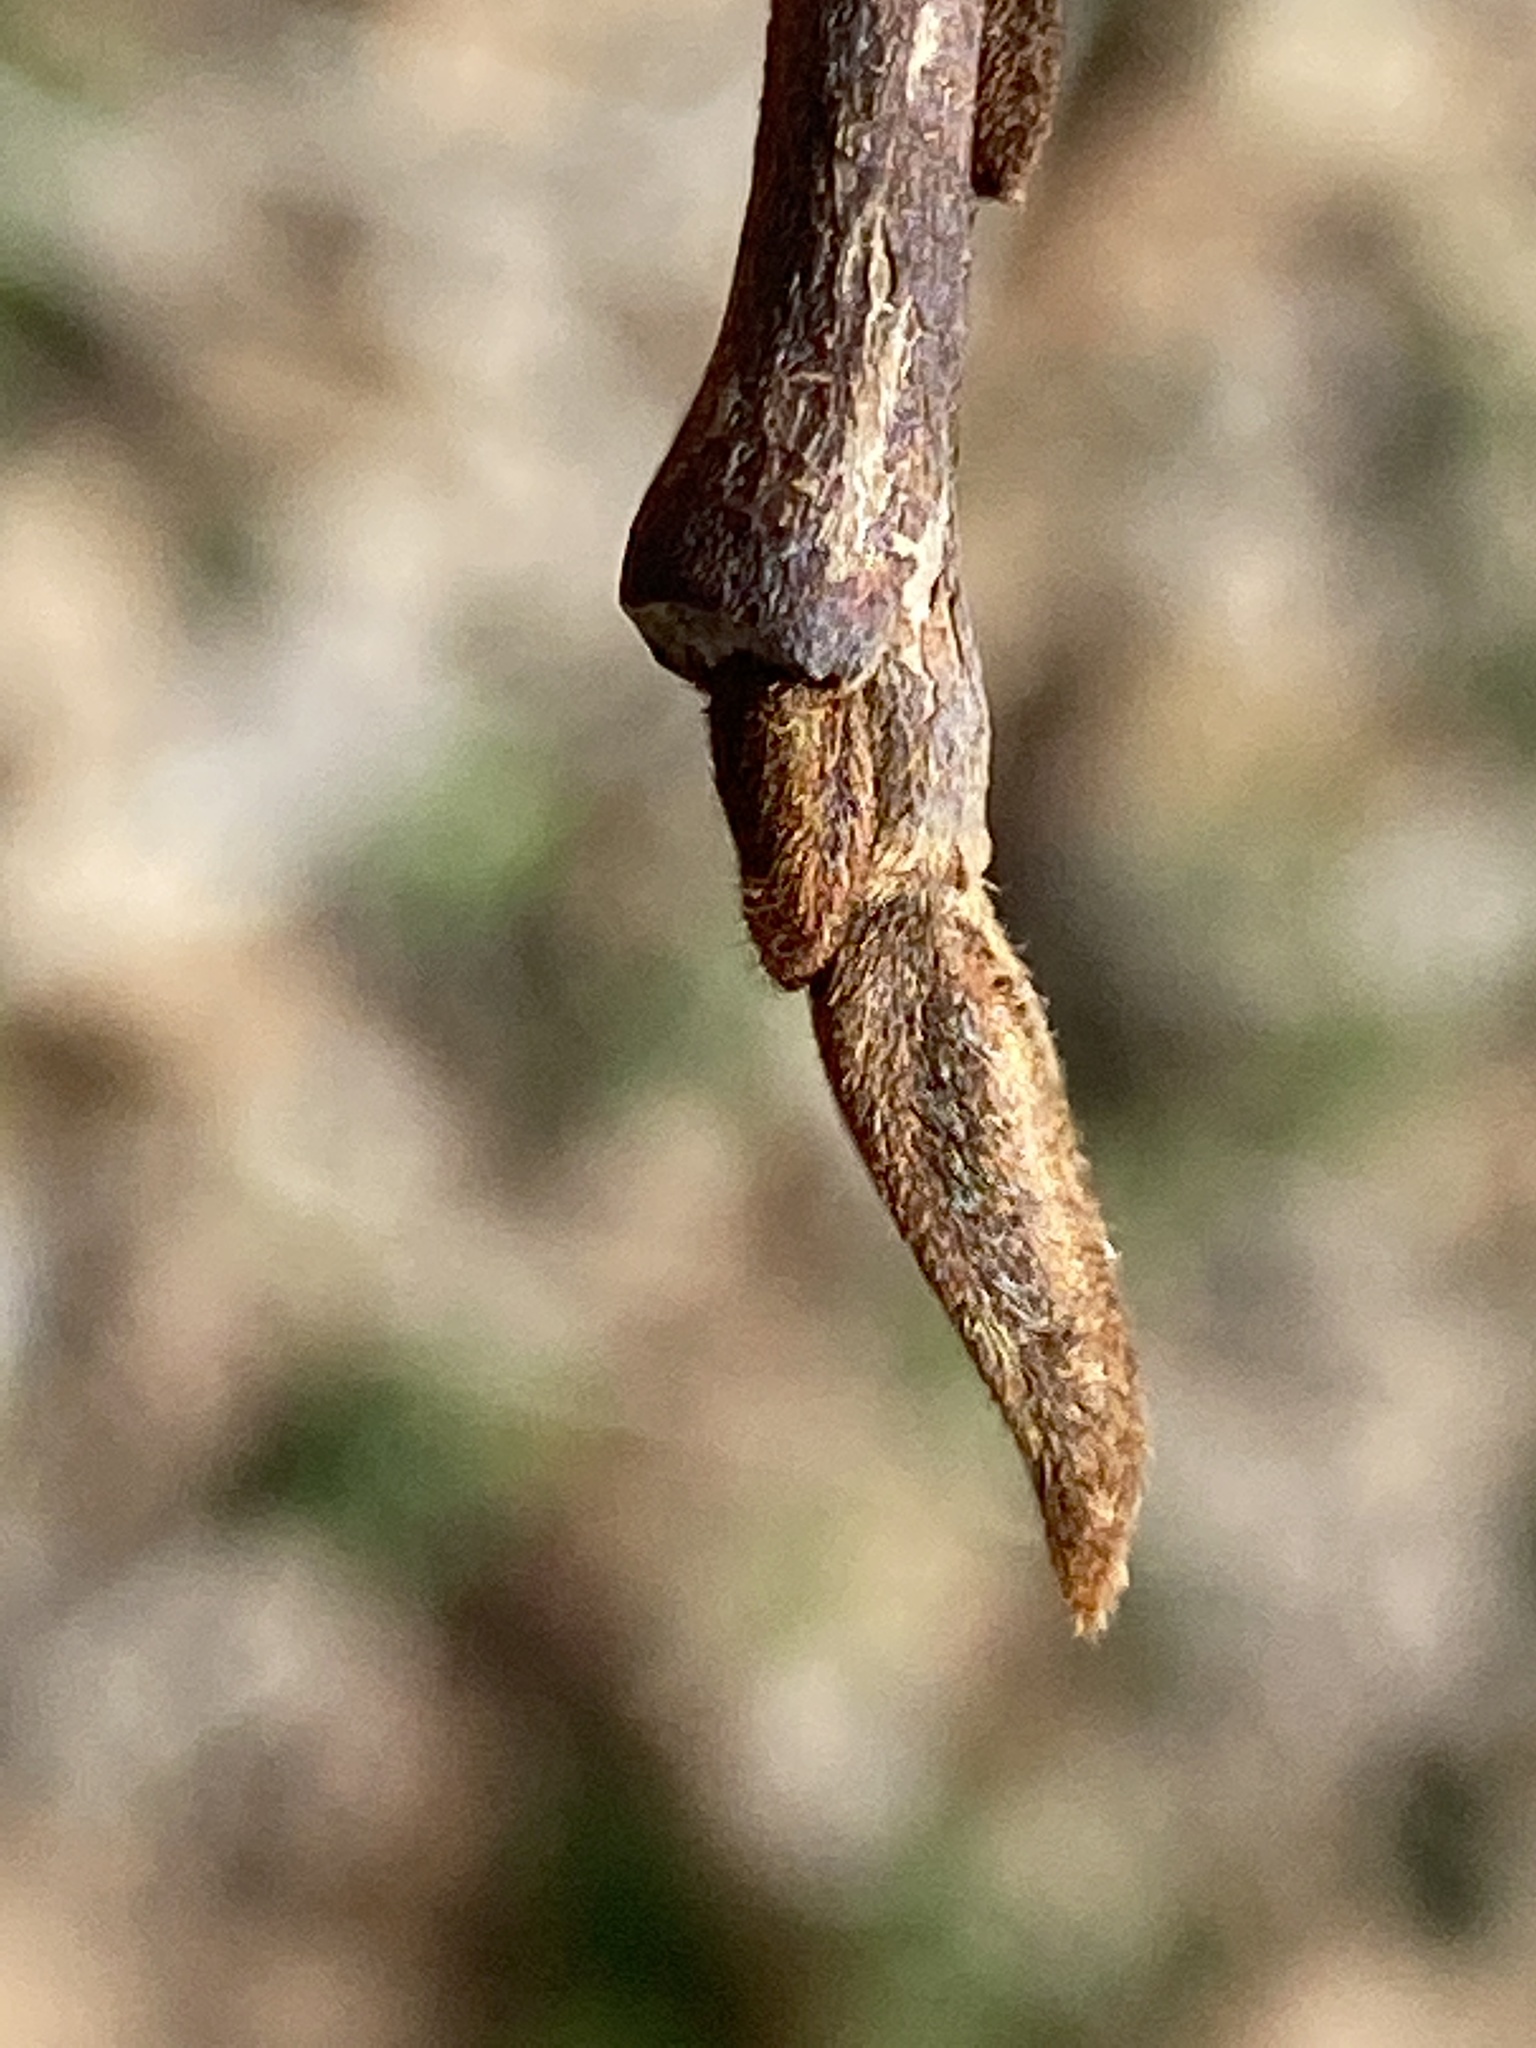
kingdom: Plantae
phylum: Tracheophyta
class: Magnoliopsida
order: Magnoliales
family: Annonaceae
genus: Asimina
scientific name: Asimina triloba
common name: Dog-banana
